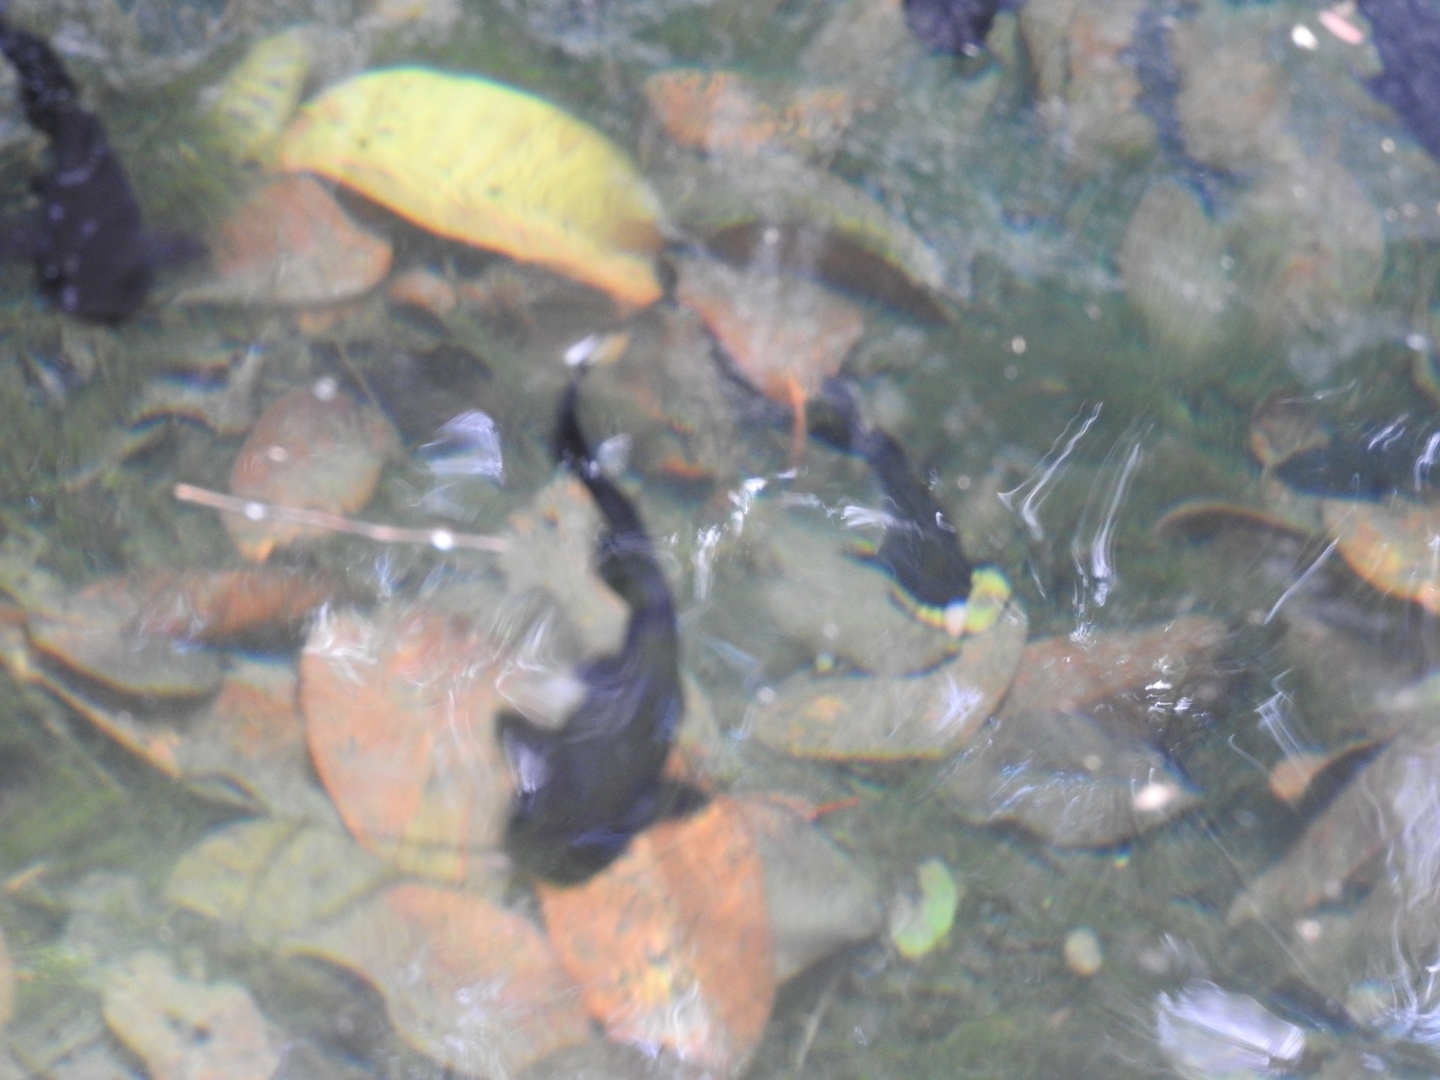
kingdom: Animalia
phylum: Chordata
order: Siluriformes
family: Heptapteridae
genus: Rhamdia
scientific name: Rhamdia guatemalensis
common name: Pale catfish
